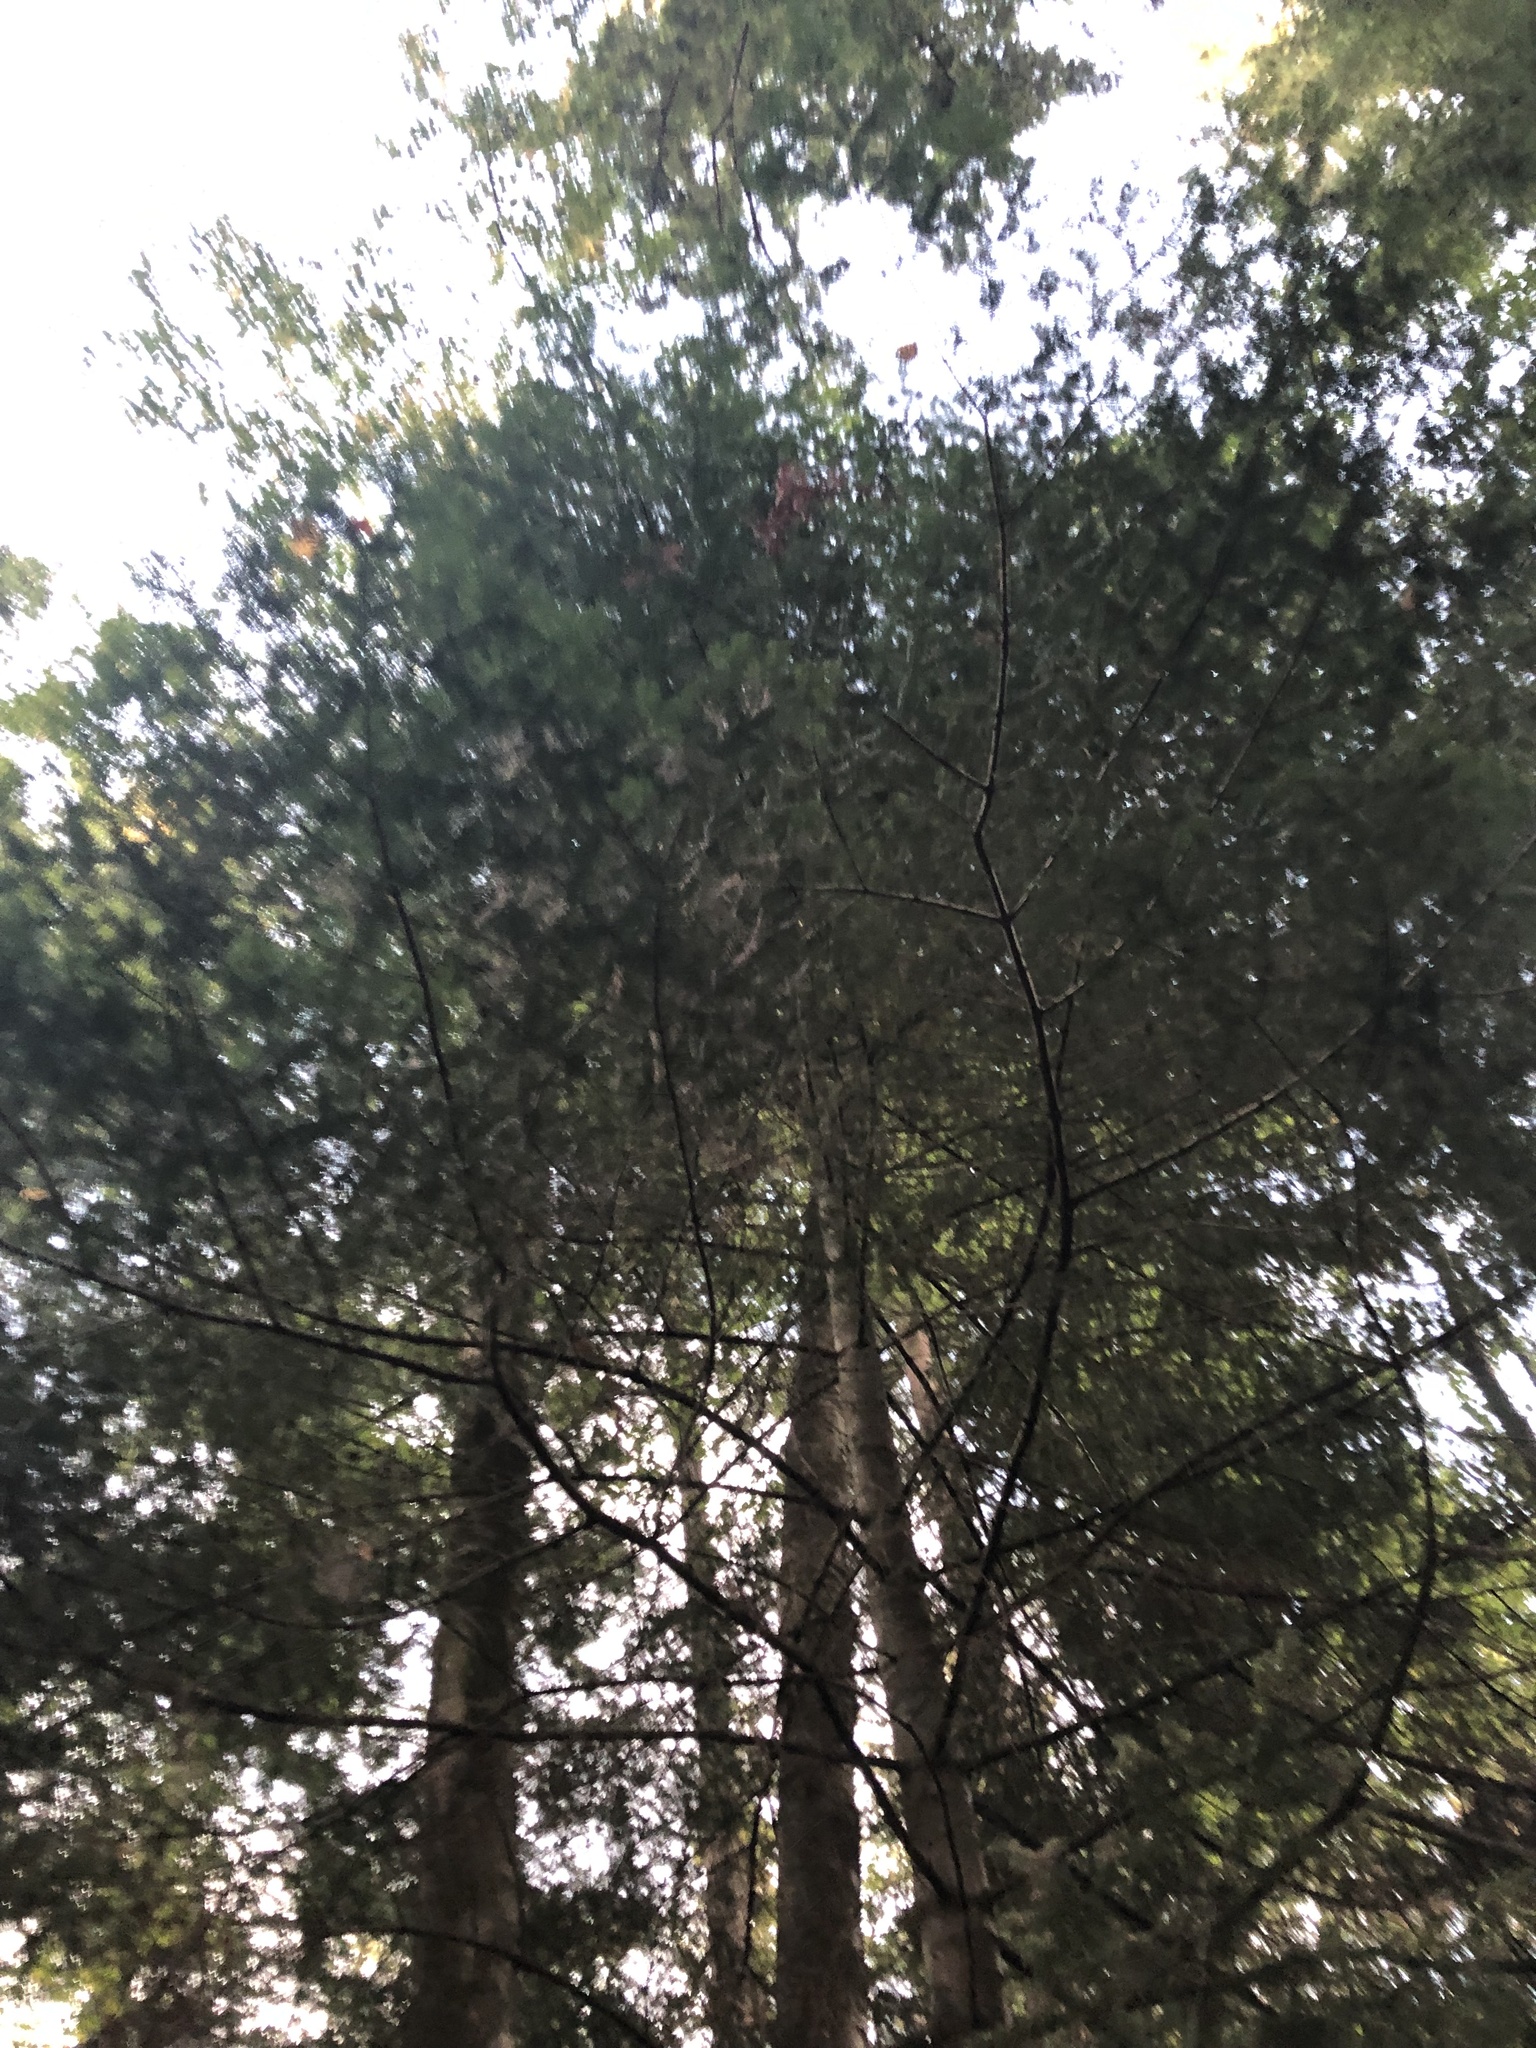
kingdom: Plantae
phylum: Tracheophyta
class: Pinopsida
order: Pinales
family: Pinaceae
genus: Abies
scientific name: Abies grandis
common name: Giant fir
